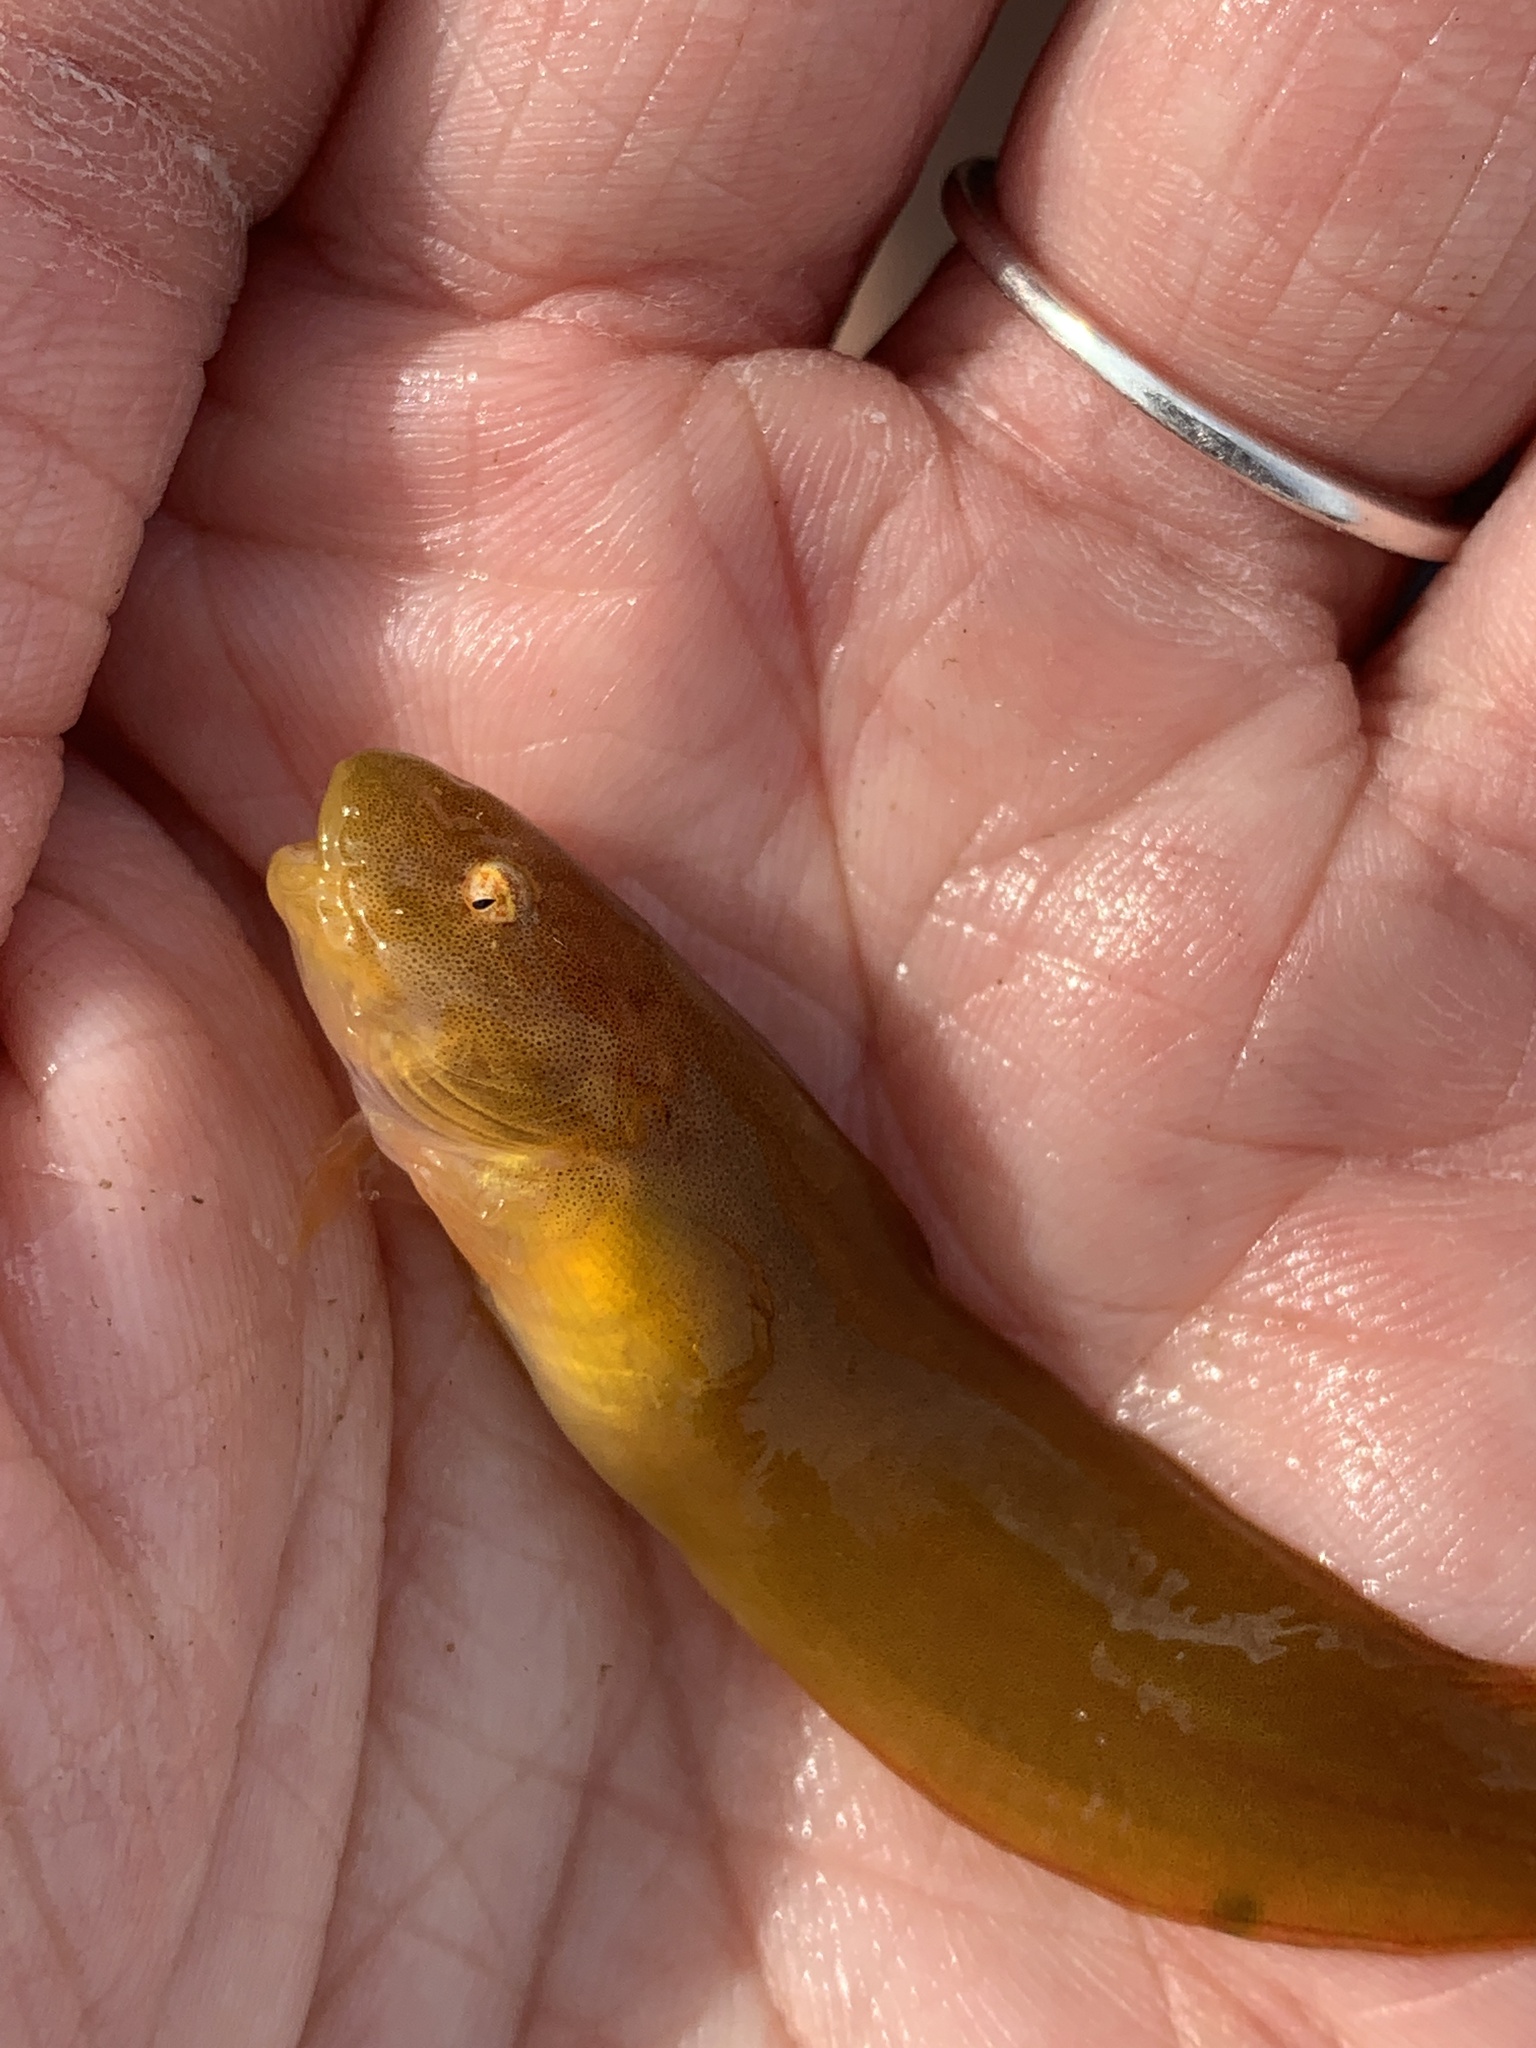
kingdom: Animalia
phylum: Chordata
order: Scorpaeniformes
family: Liparidae
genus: Liparis
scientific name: Liparis florae
